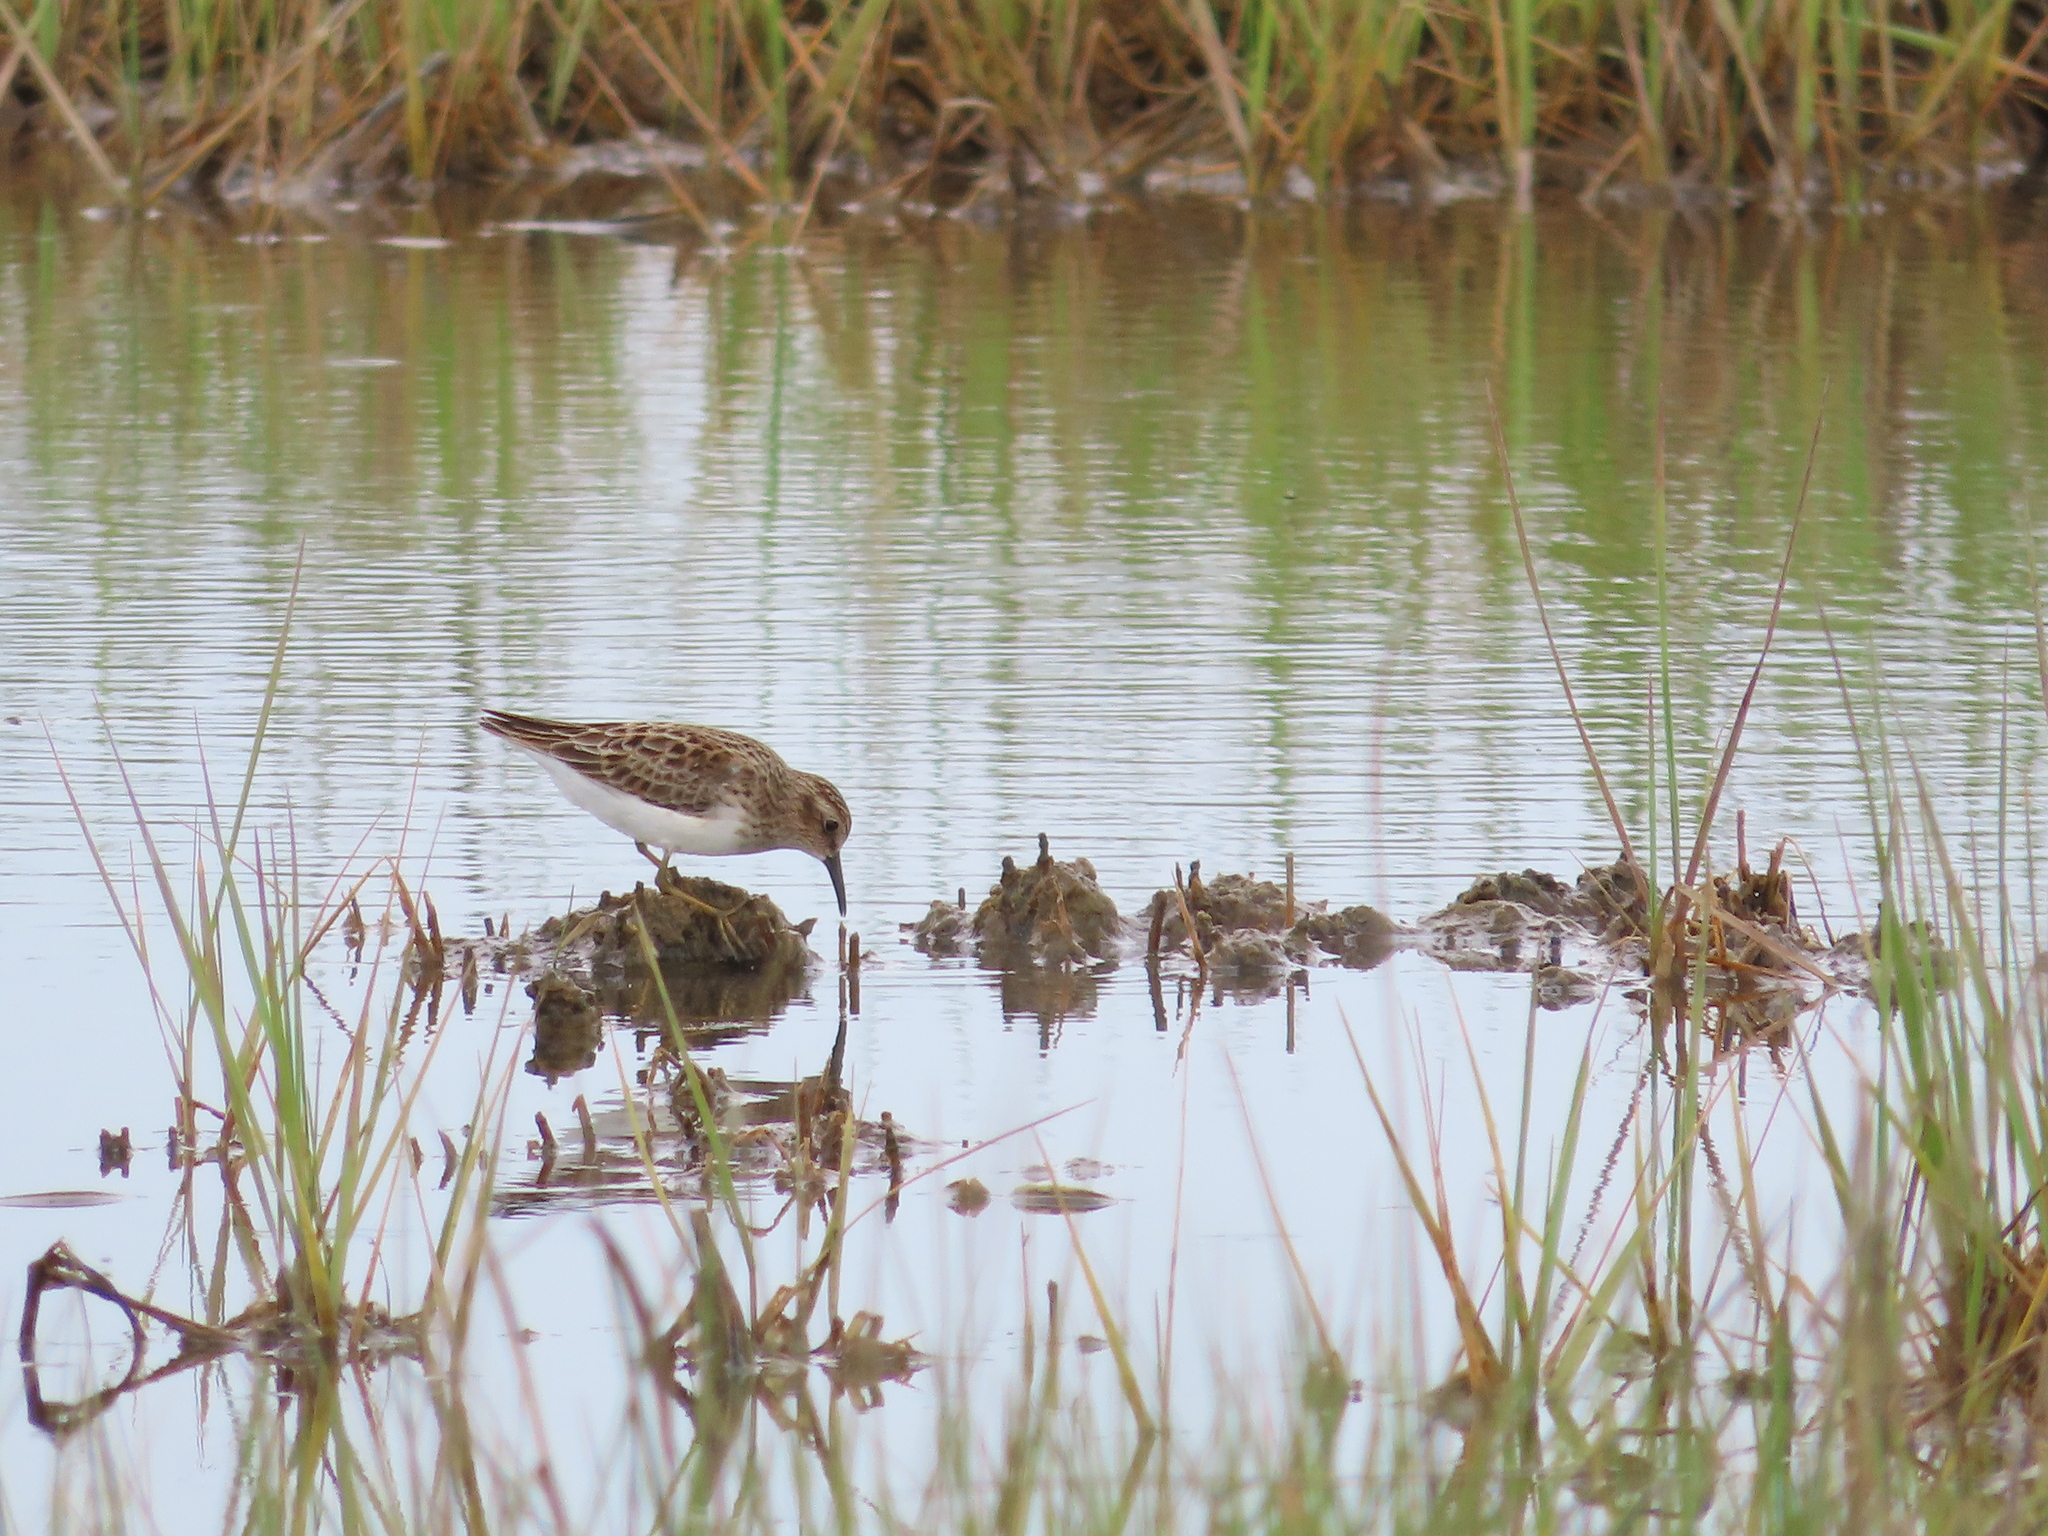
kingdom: Animalia
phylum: Chordata
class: Aves
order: Charadriiformes
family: Scolopacidae
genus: Calidris
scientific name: Calidris minutilla
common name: Least sandpiper
